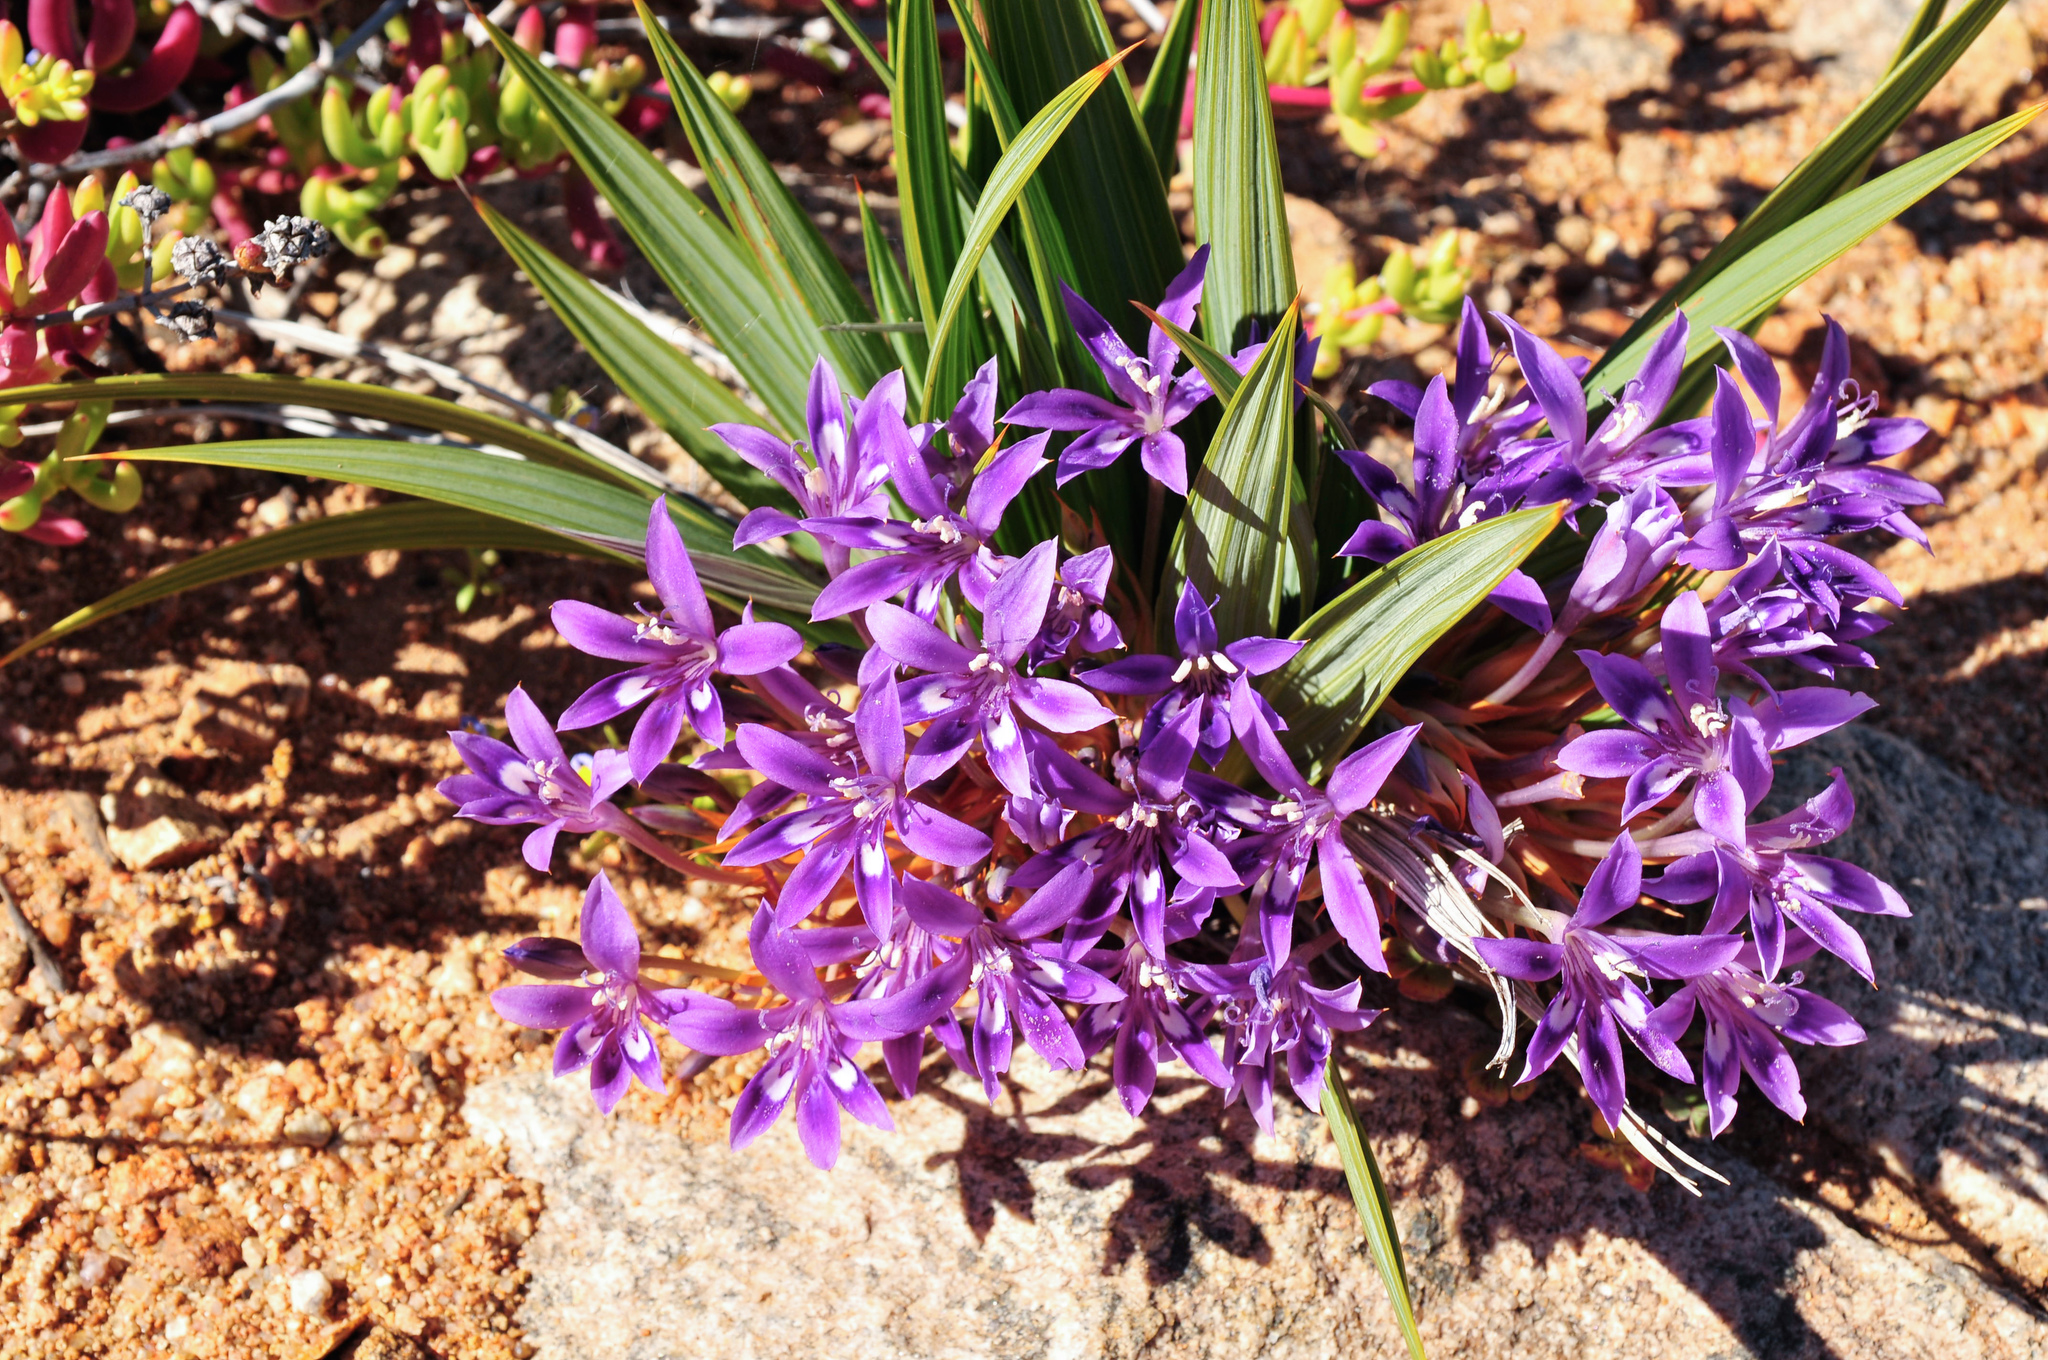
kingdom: Plantae
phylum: Tracheophyta
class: Liliopsida
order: Asparagales
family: Iridaceae
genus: Babiana
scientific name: Babiana dregei
